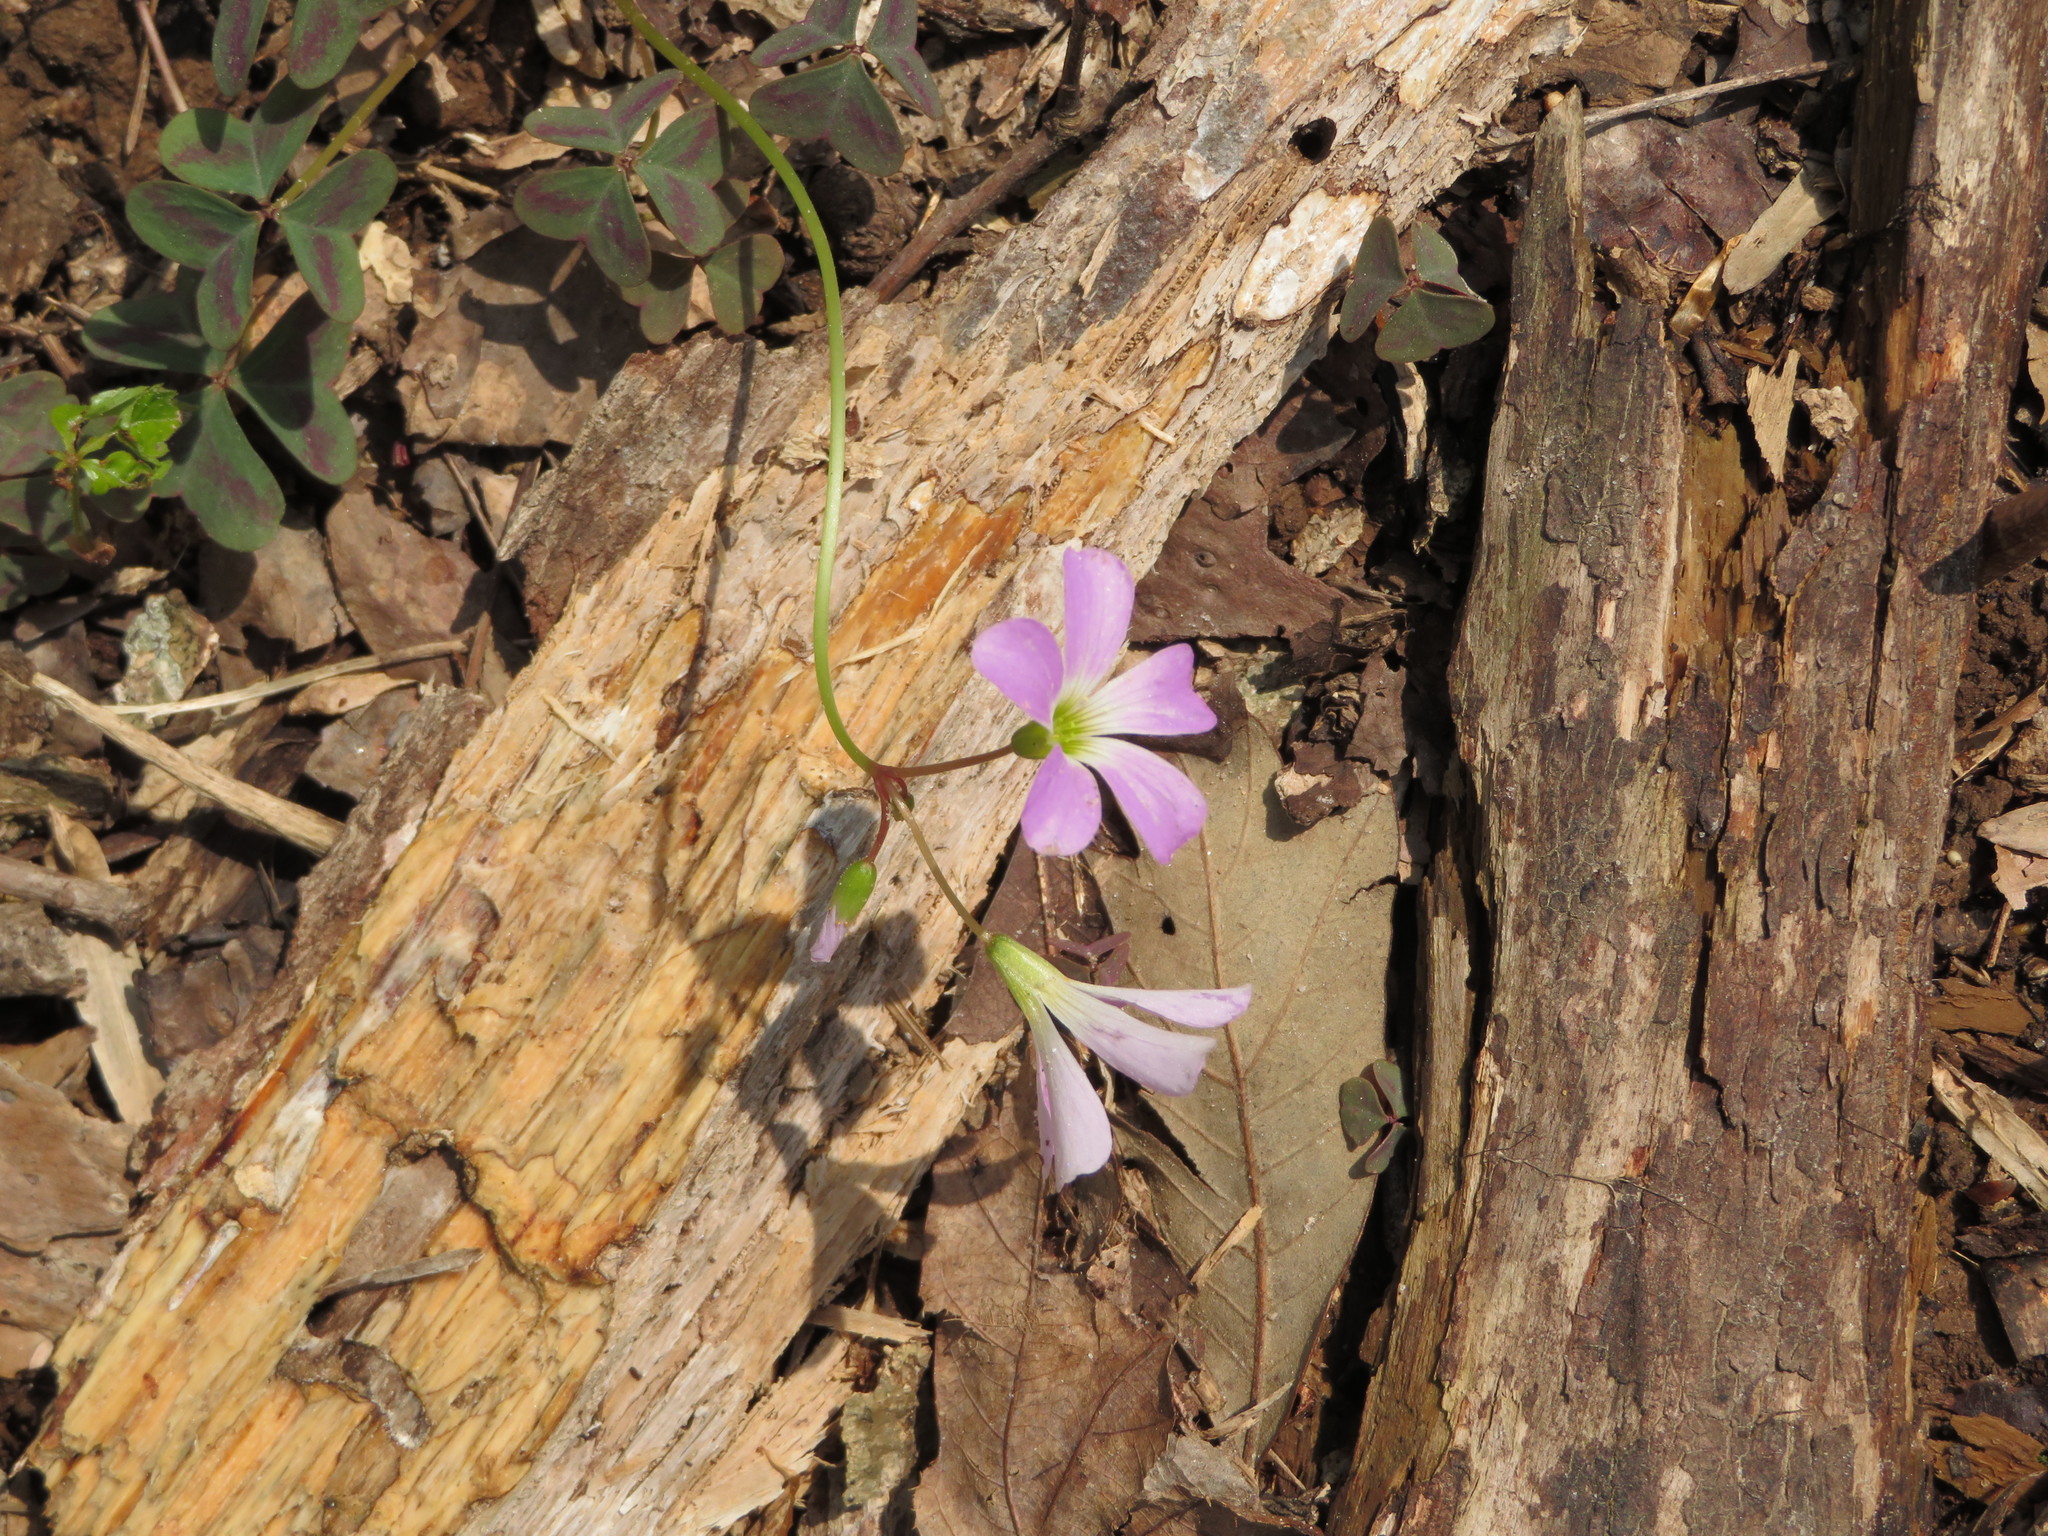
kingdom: Plantae
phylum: Tracheophyta
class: Magnoliopsida
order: Oxalidales
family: Oxalidaceae
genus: Oxalis
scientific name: Oxalis violacea
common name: Violet wood-sorrel
